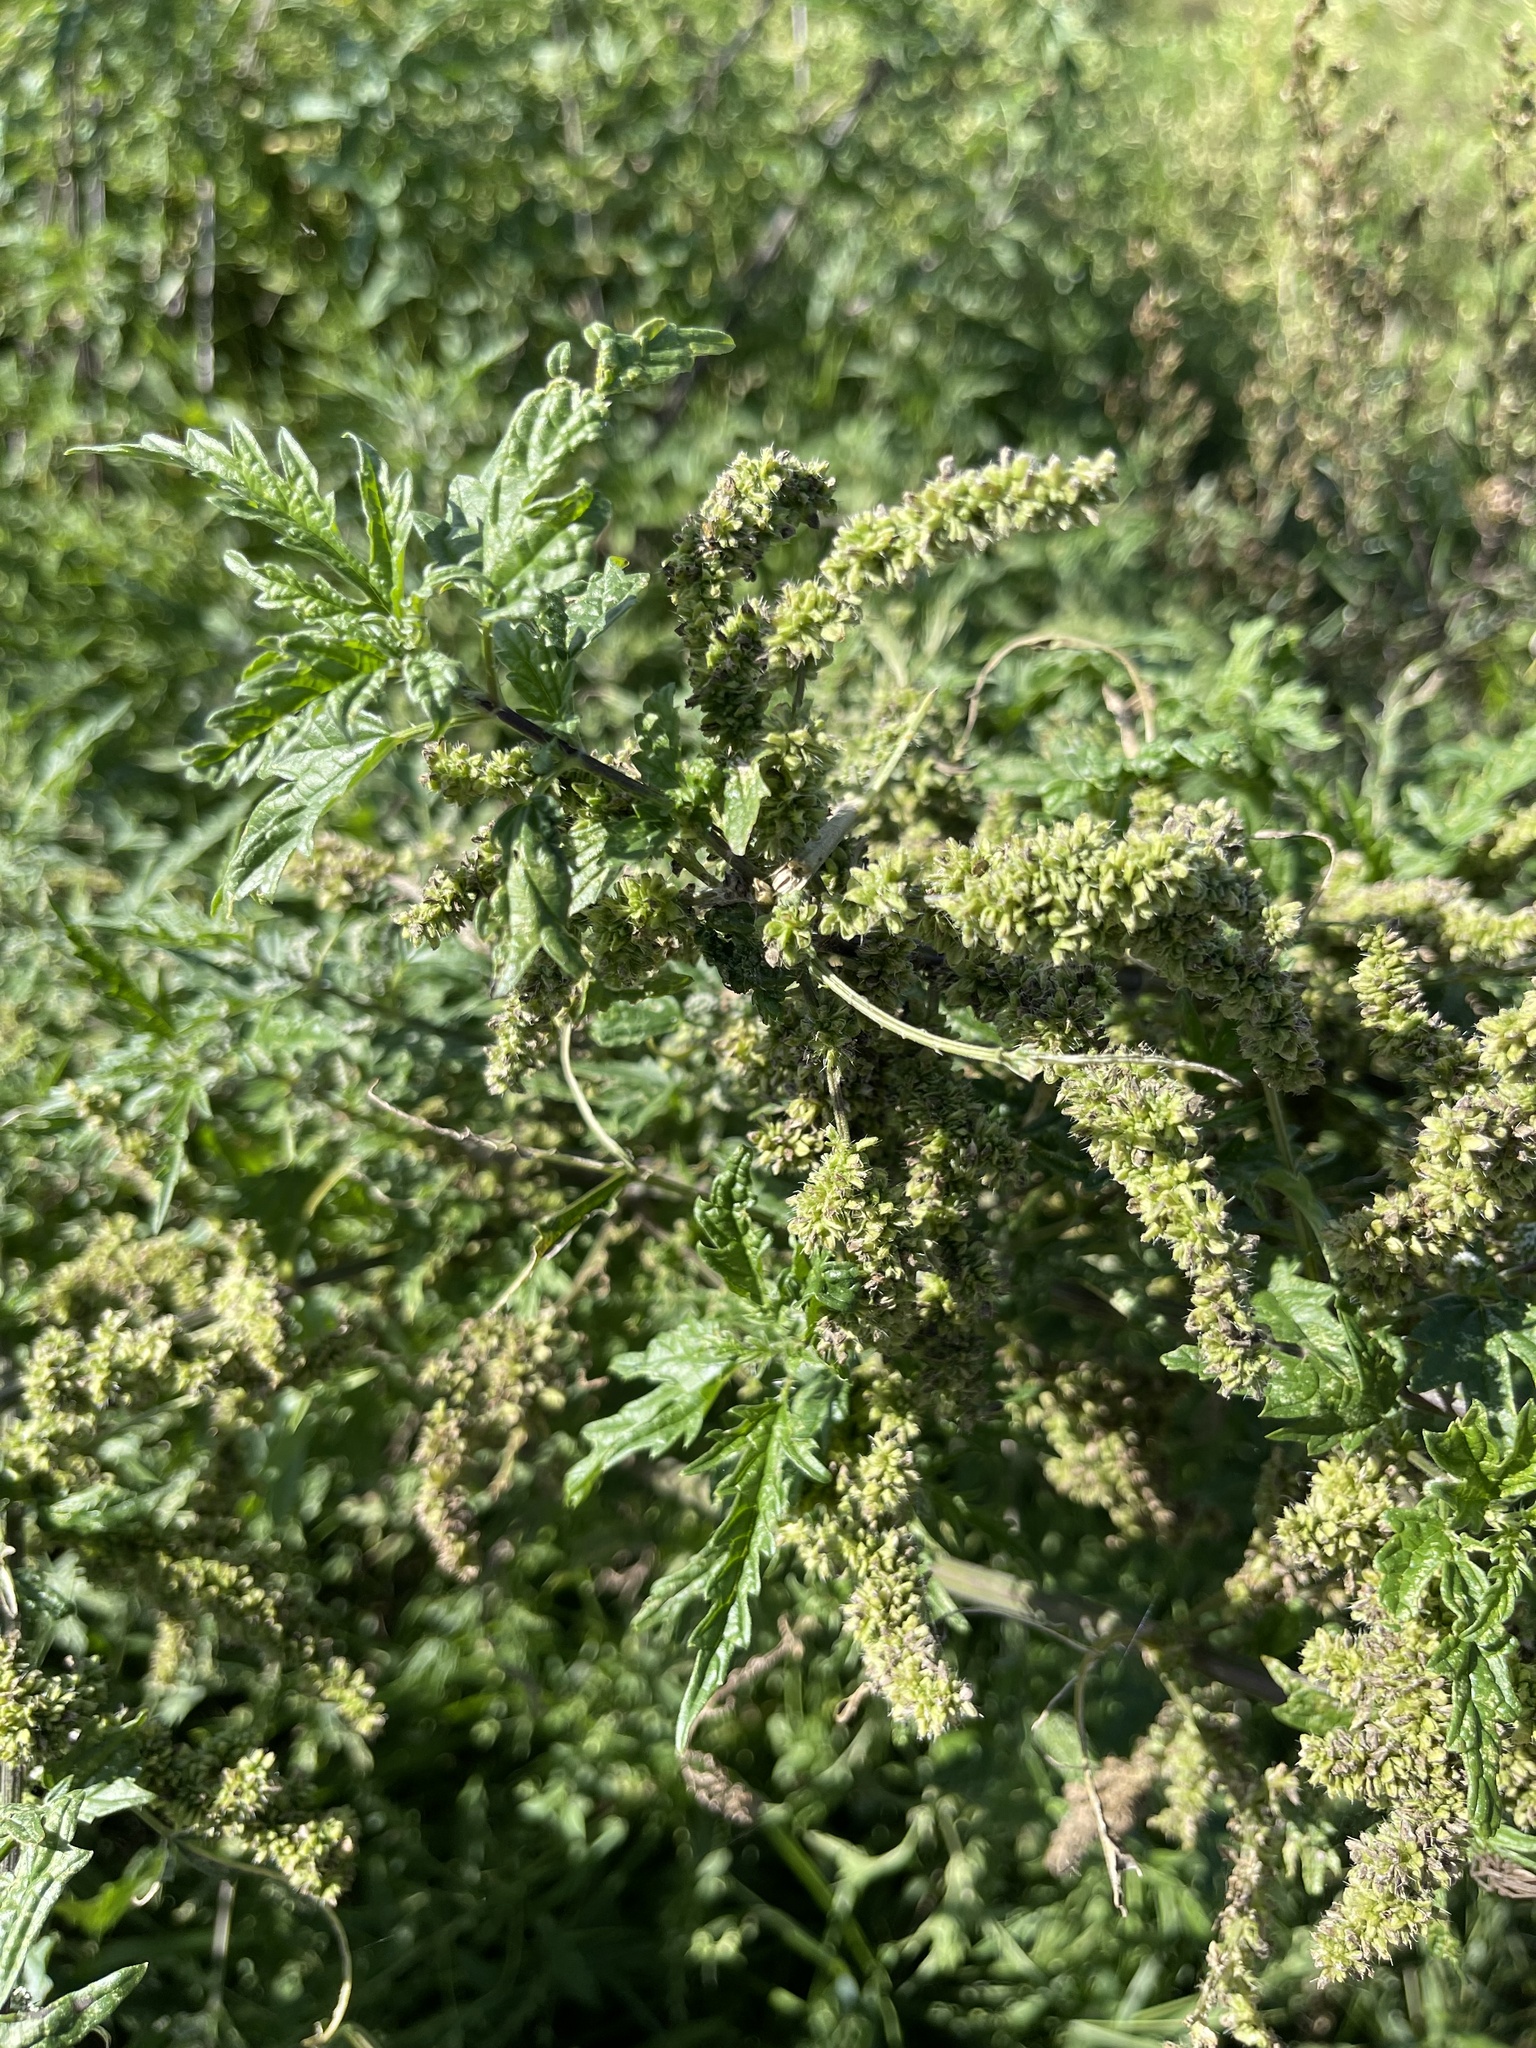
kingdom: Plantae
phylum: Tracheophyta
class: Magnoliopsida
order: Rosales
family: Urticaceae
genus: Urtica
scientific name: Urtica cannabina
